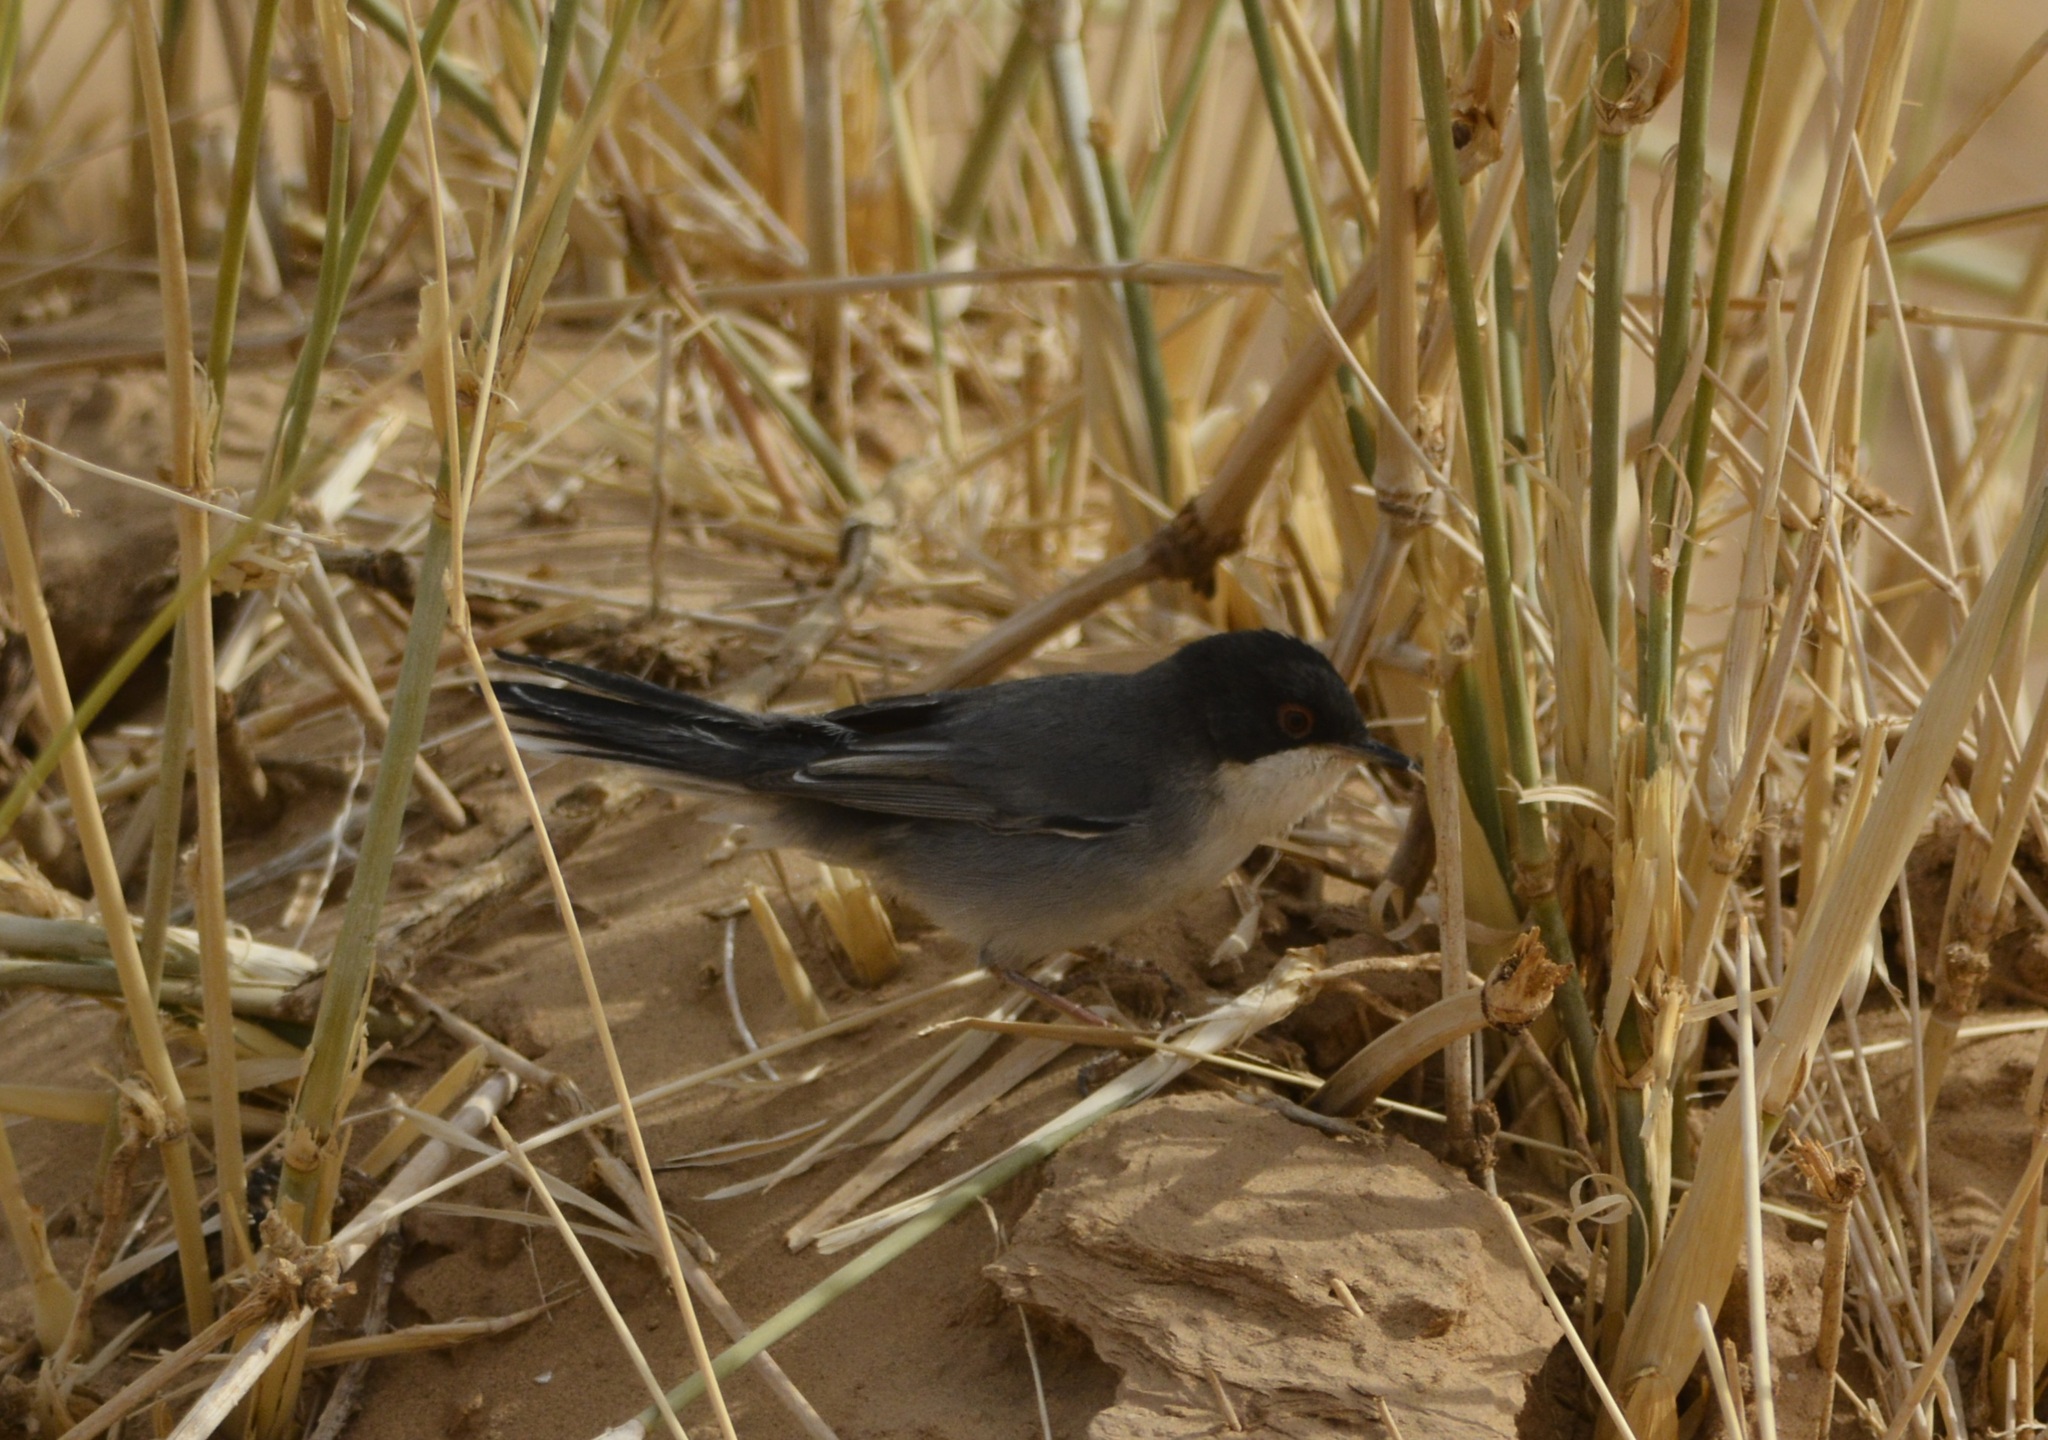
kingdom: Animalia
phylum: Chordata
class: Aves
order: Passeriformes
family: Sylviidae
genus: Curruca
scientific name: Curruca melanocephala
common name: Sardinian warbler
